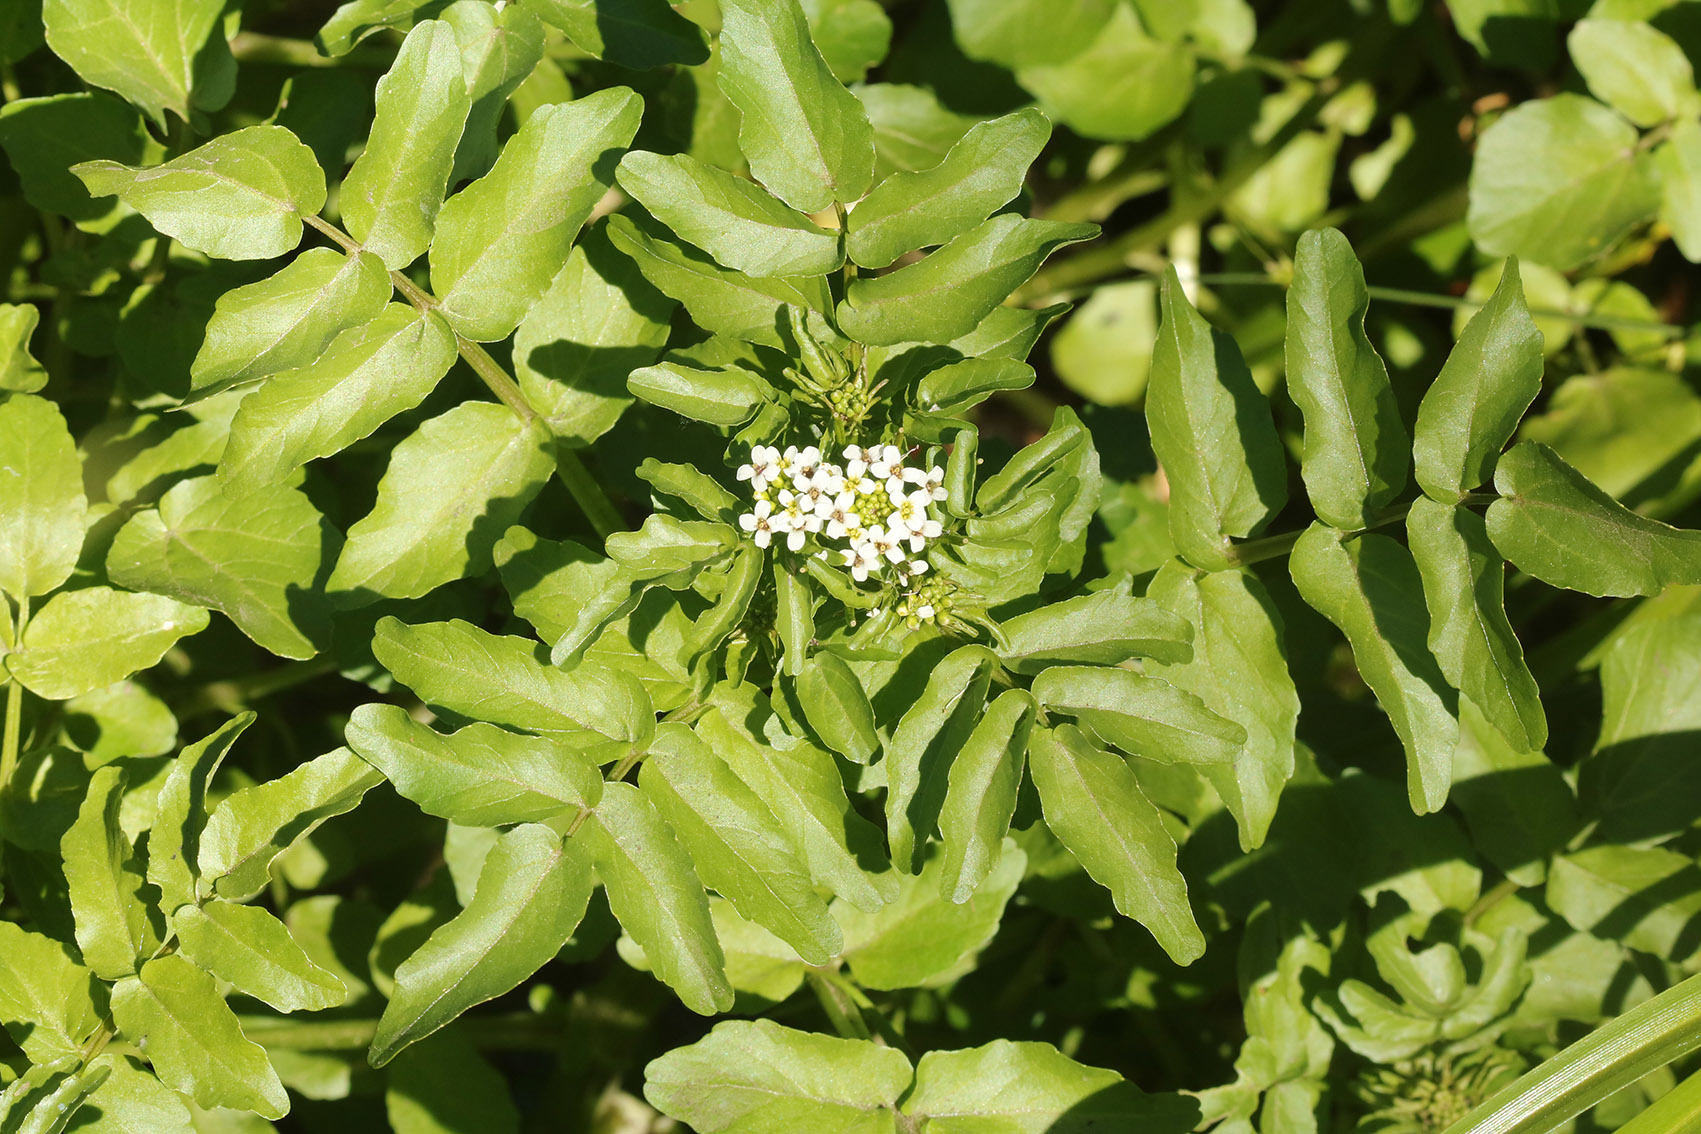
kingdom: Plantae
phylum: Tracheophyta
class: Magnoliopsida
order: Brassicales
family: Brassicaceae
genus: Nasturtium
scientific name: Nasturtium officinale
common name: Watercress
